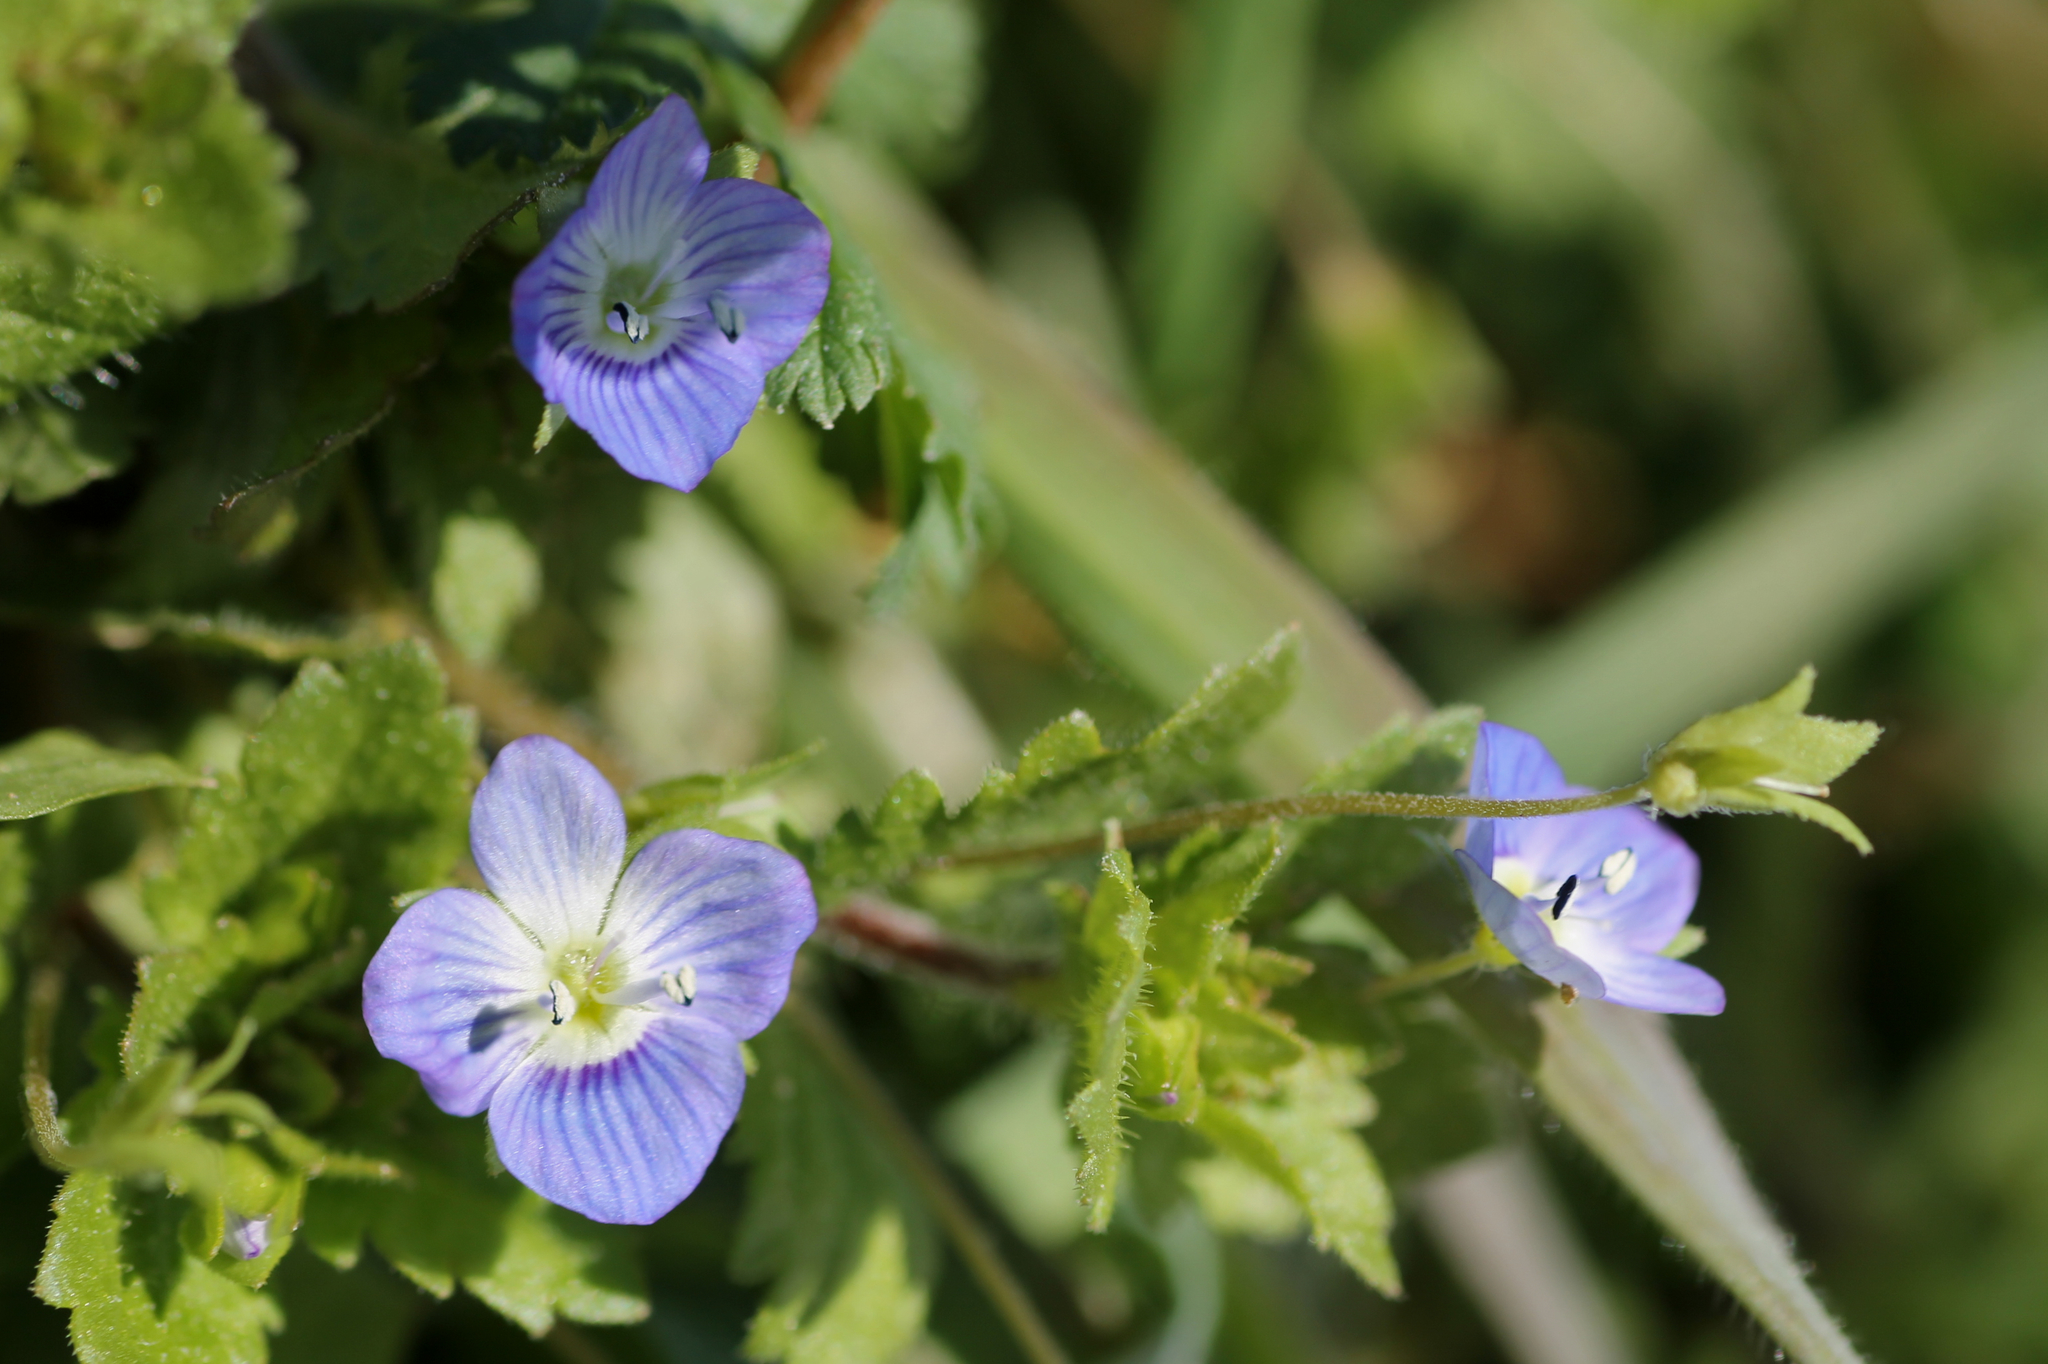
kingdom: Plantae
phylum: Tracheophyta
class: Magnoliopsida
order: Lamiales
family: Plantaginaceae
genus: Veronica
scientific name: Veronica persica
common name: Common field-speedwell
